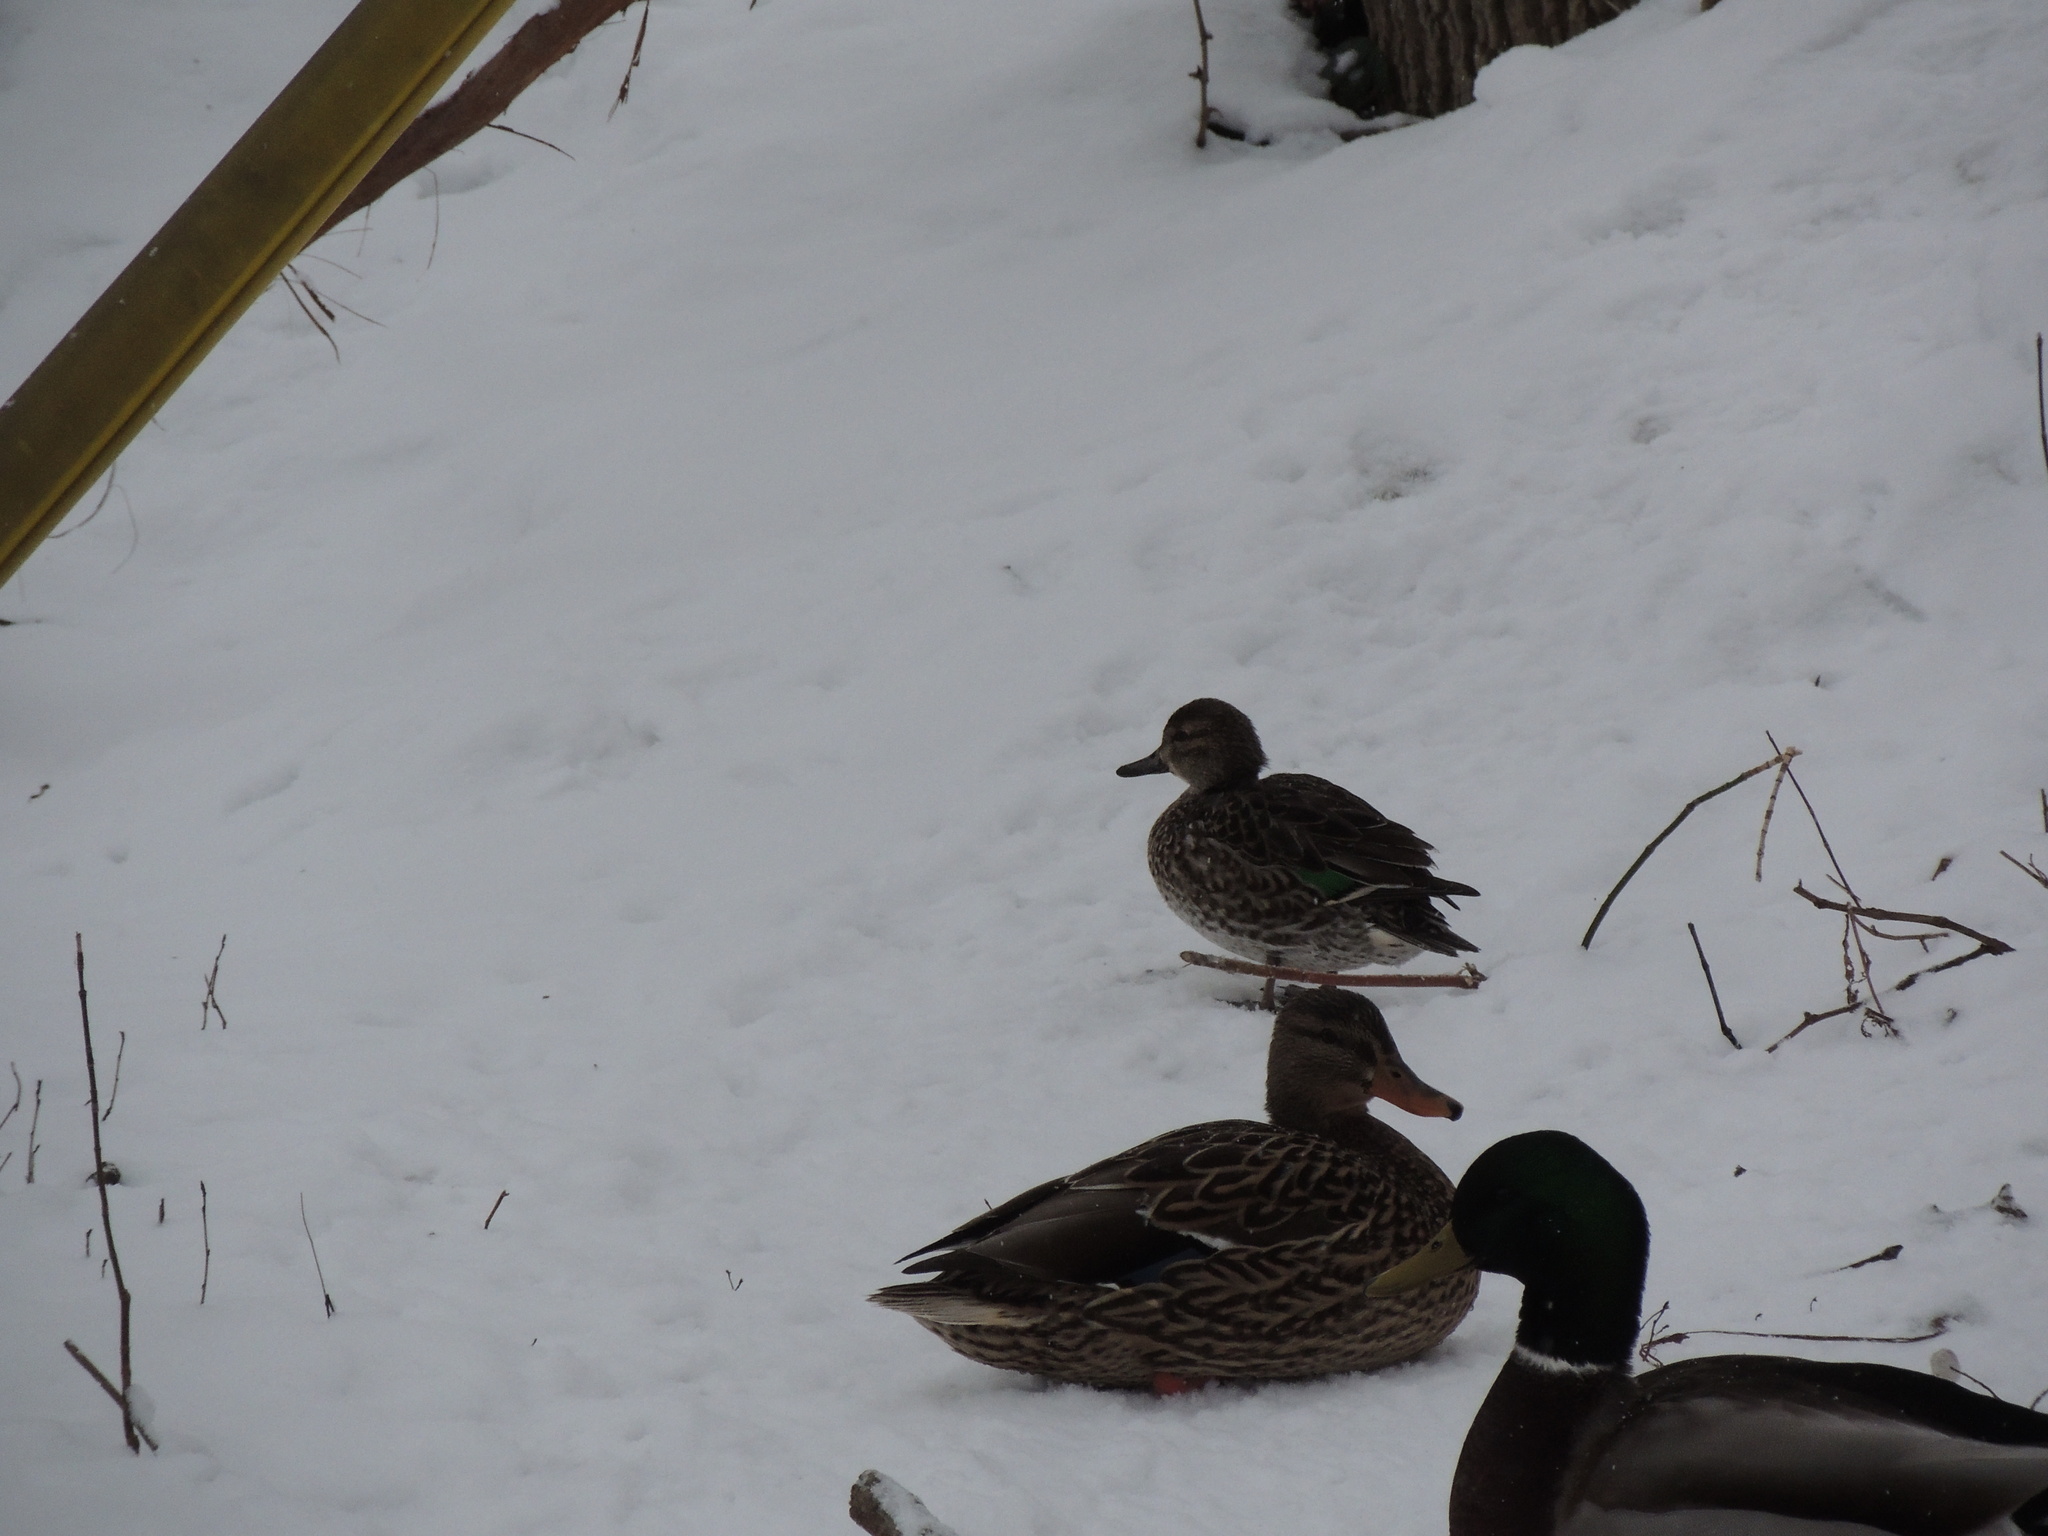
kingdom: Animalia
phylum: Chordata
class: Aves
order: Anseriformes
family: Anatidae
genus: Anas
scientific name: Anas crecca
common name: Eurasian teal
